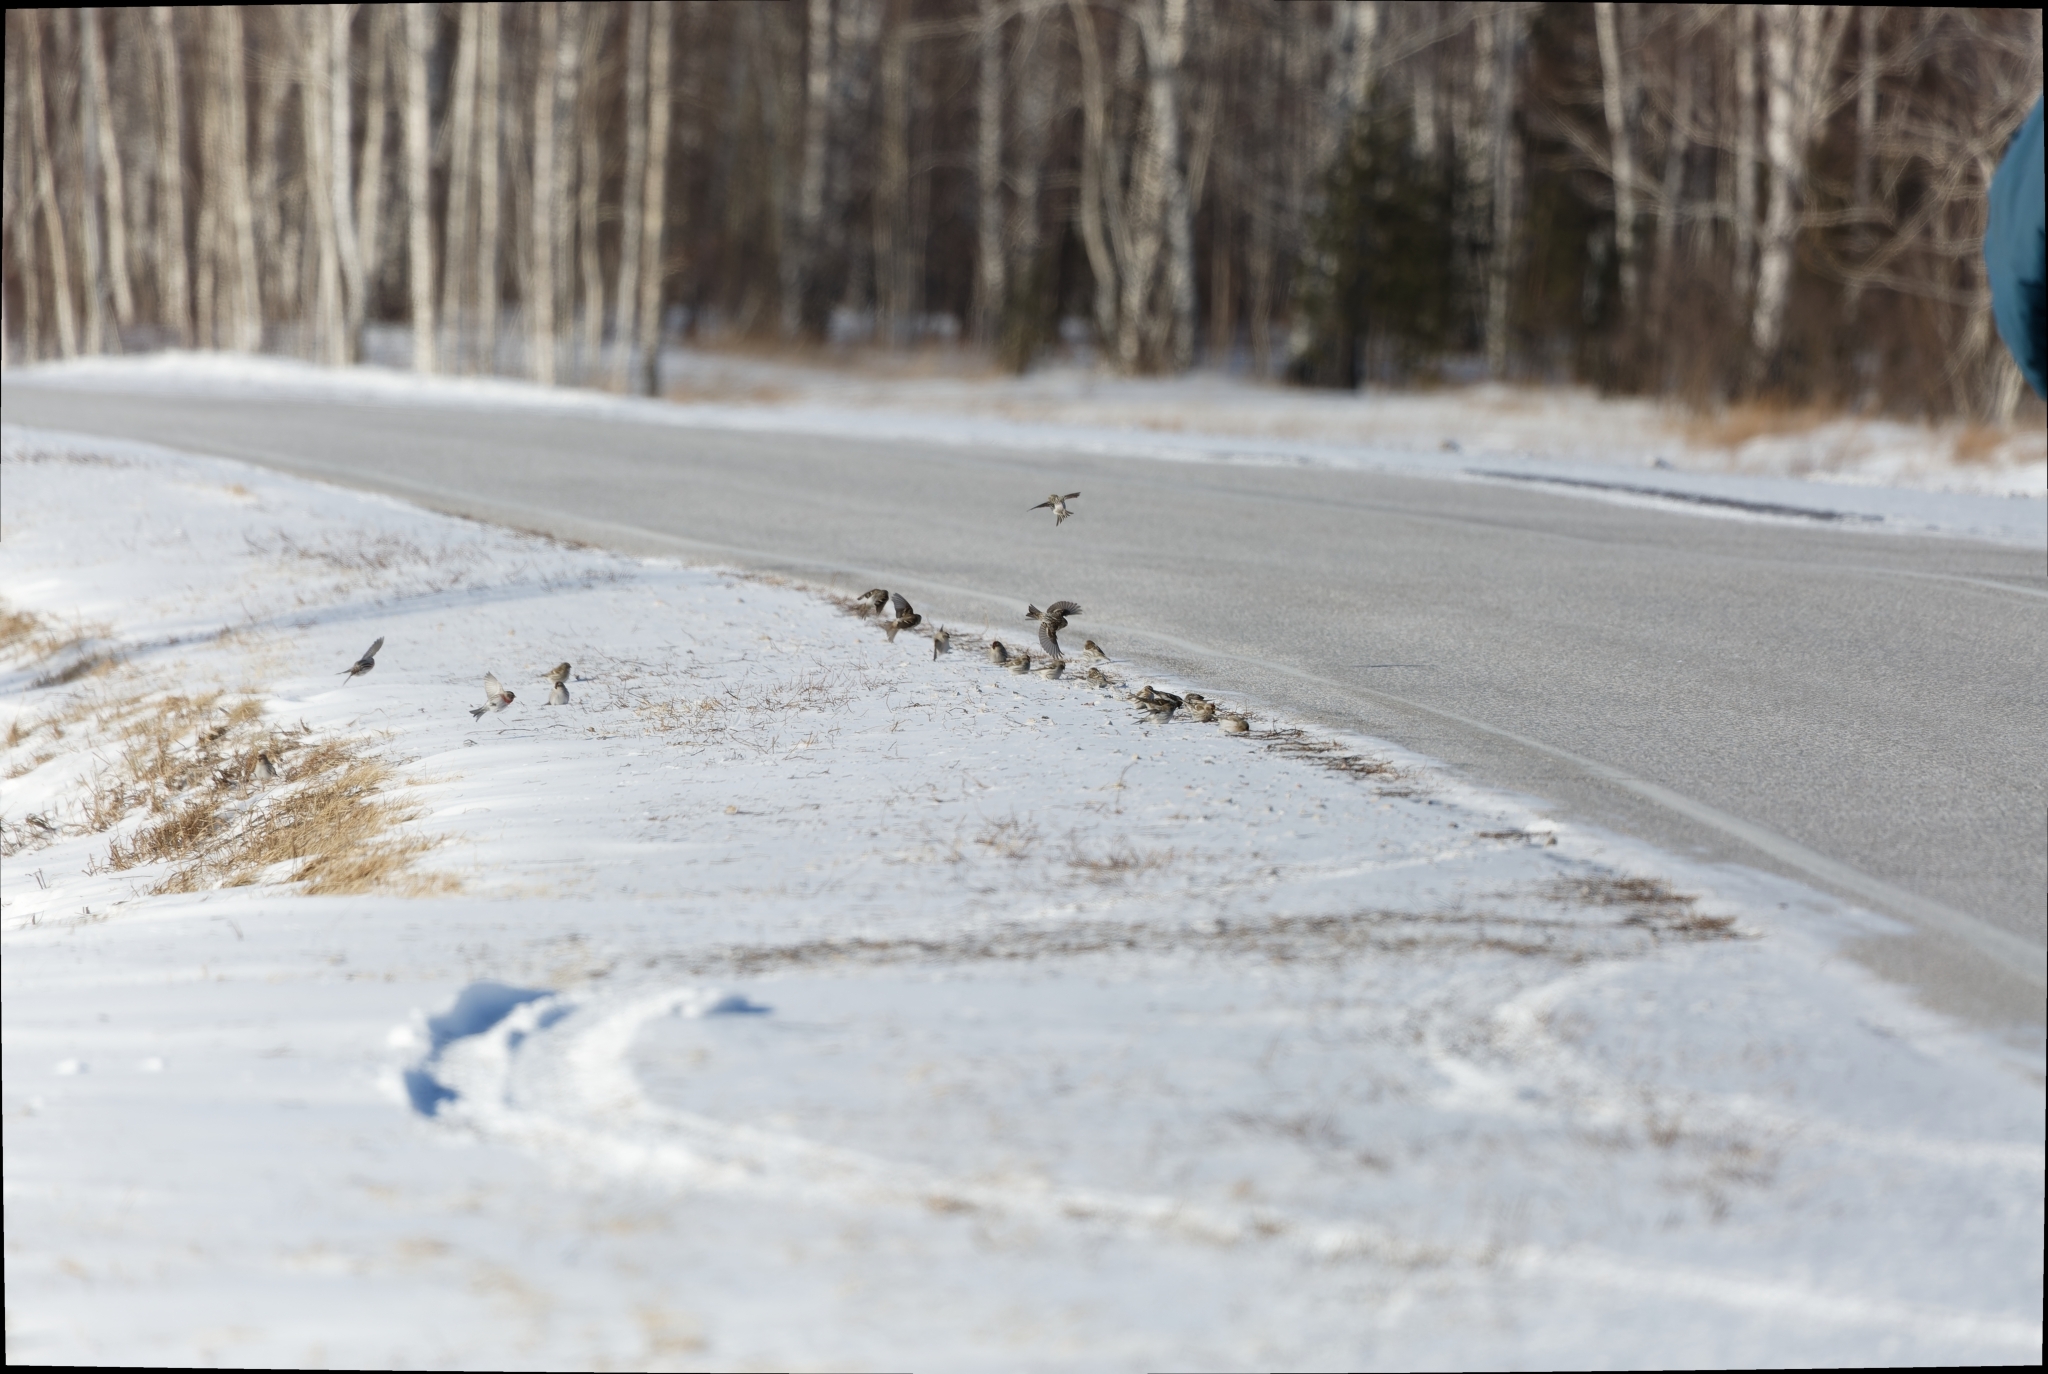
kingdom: Animalia
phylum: Chordata
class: Aves
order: Passeriformes
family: Fringillidae
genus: Acanthis
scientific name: Acanthis flammea
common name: Common redpoll
